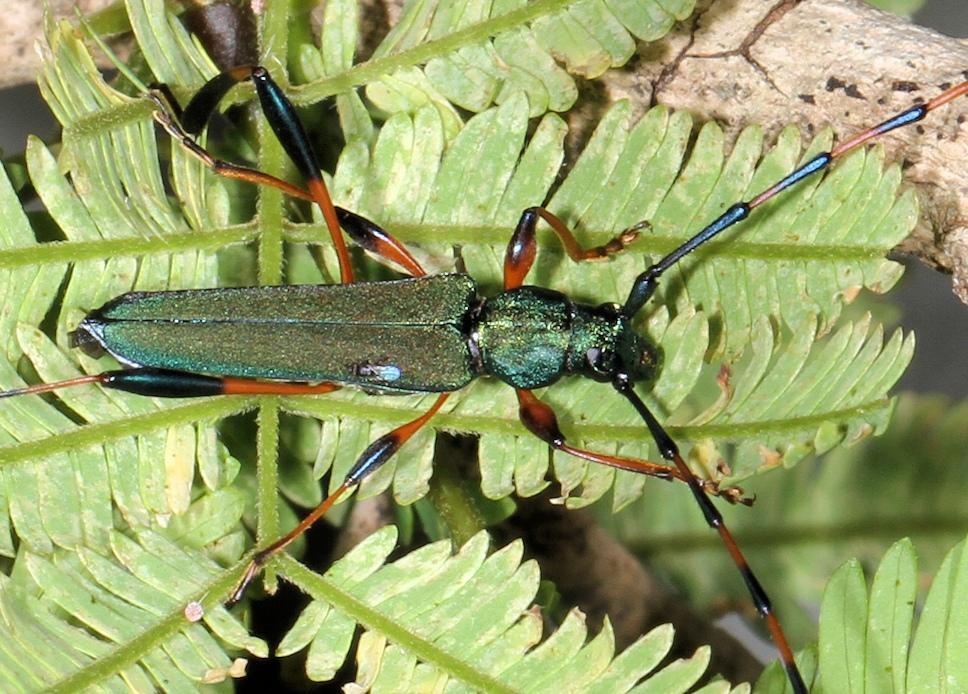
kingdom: Animalia
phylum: Arthropoda
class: Insecta
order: Coleoptera
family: Cerambycidae
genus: Litopus
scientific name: Litopus latipes
